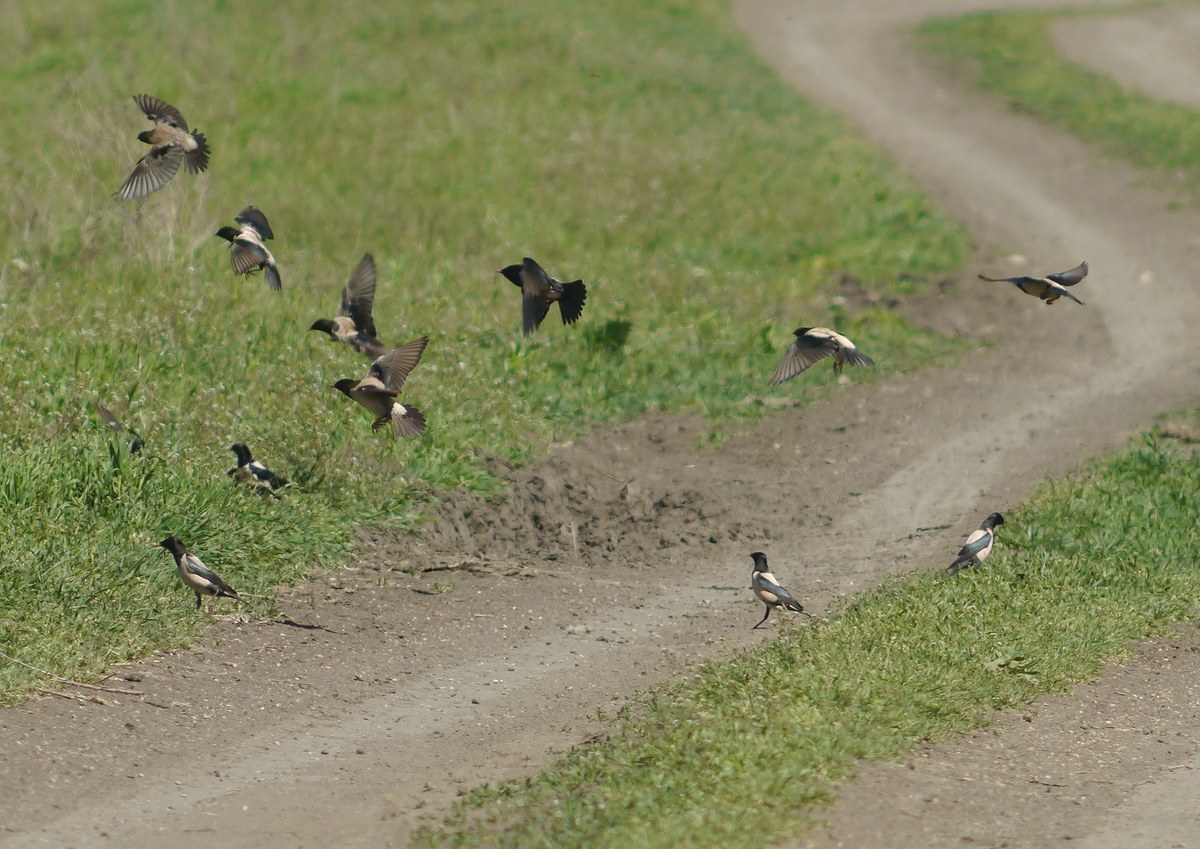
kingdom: Animalia
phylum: Chordata
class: Aves
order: Passeriformes
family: Sturnidae
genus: Pastor
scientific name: Pastor roseus
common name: Rosy starling
